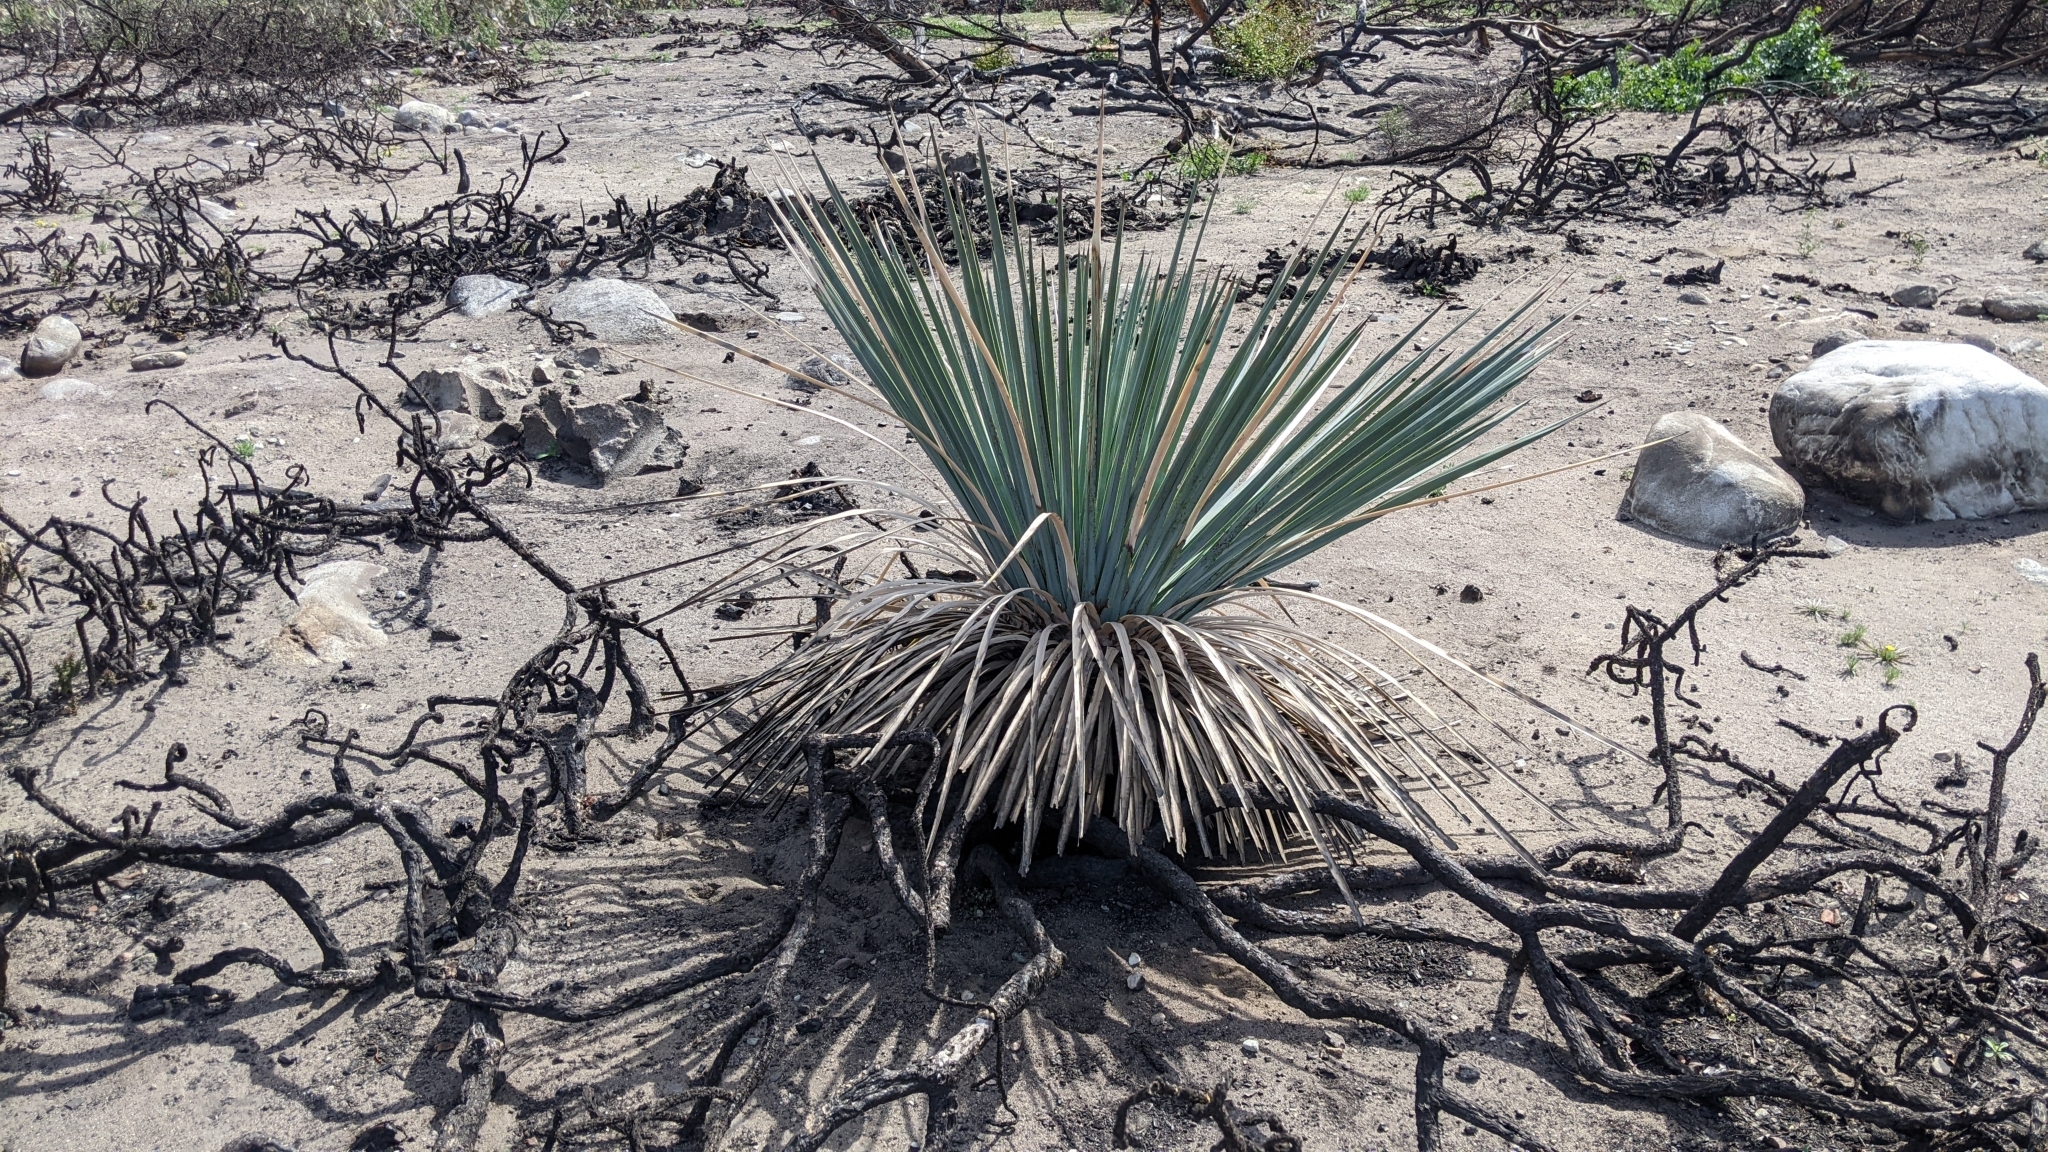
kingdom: Plantae
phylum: Tracheophyta
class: Liliopsida
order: Asparagales
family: Asparagaceae
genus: Hesperoyucca
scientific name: Hesperoyucca whipplei
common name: Our lord's-candle
